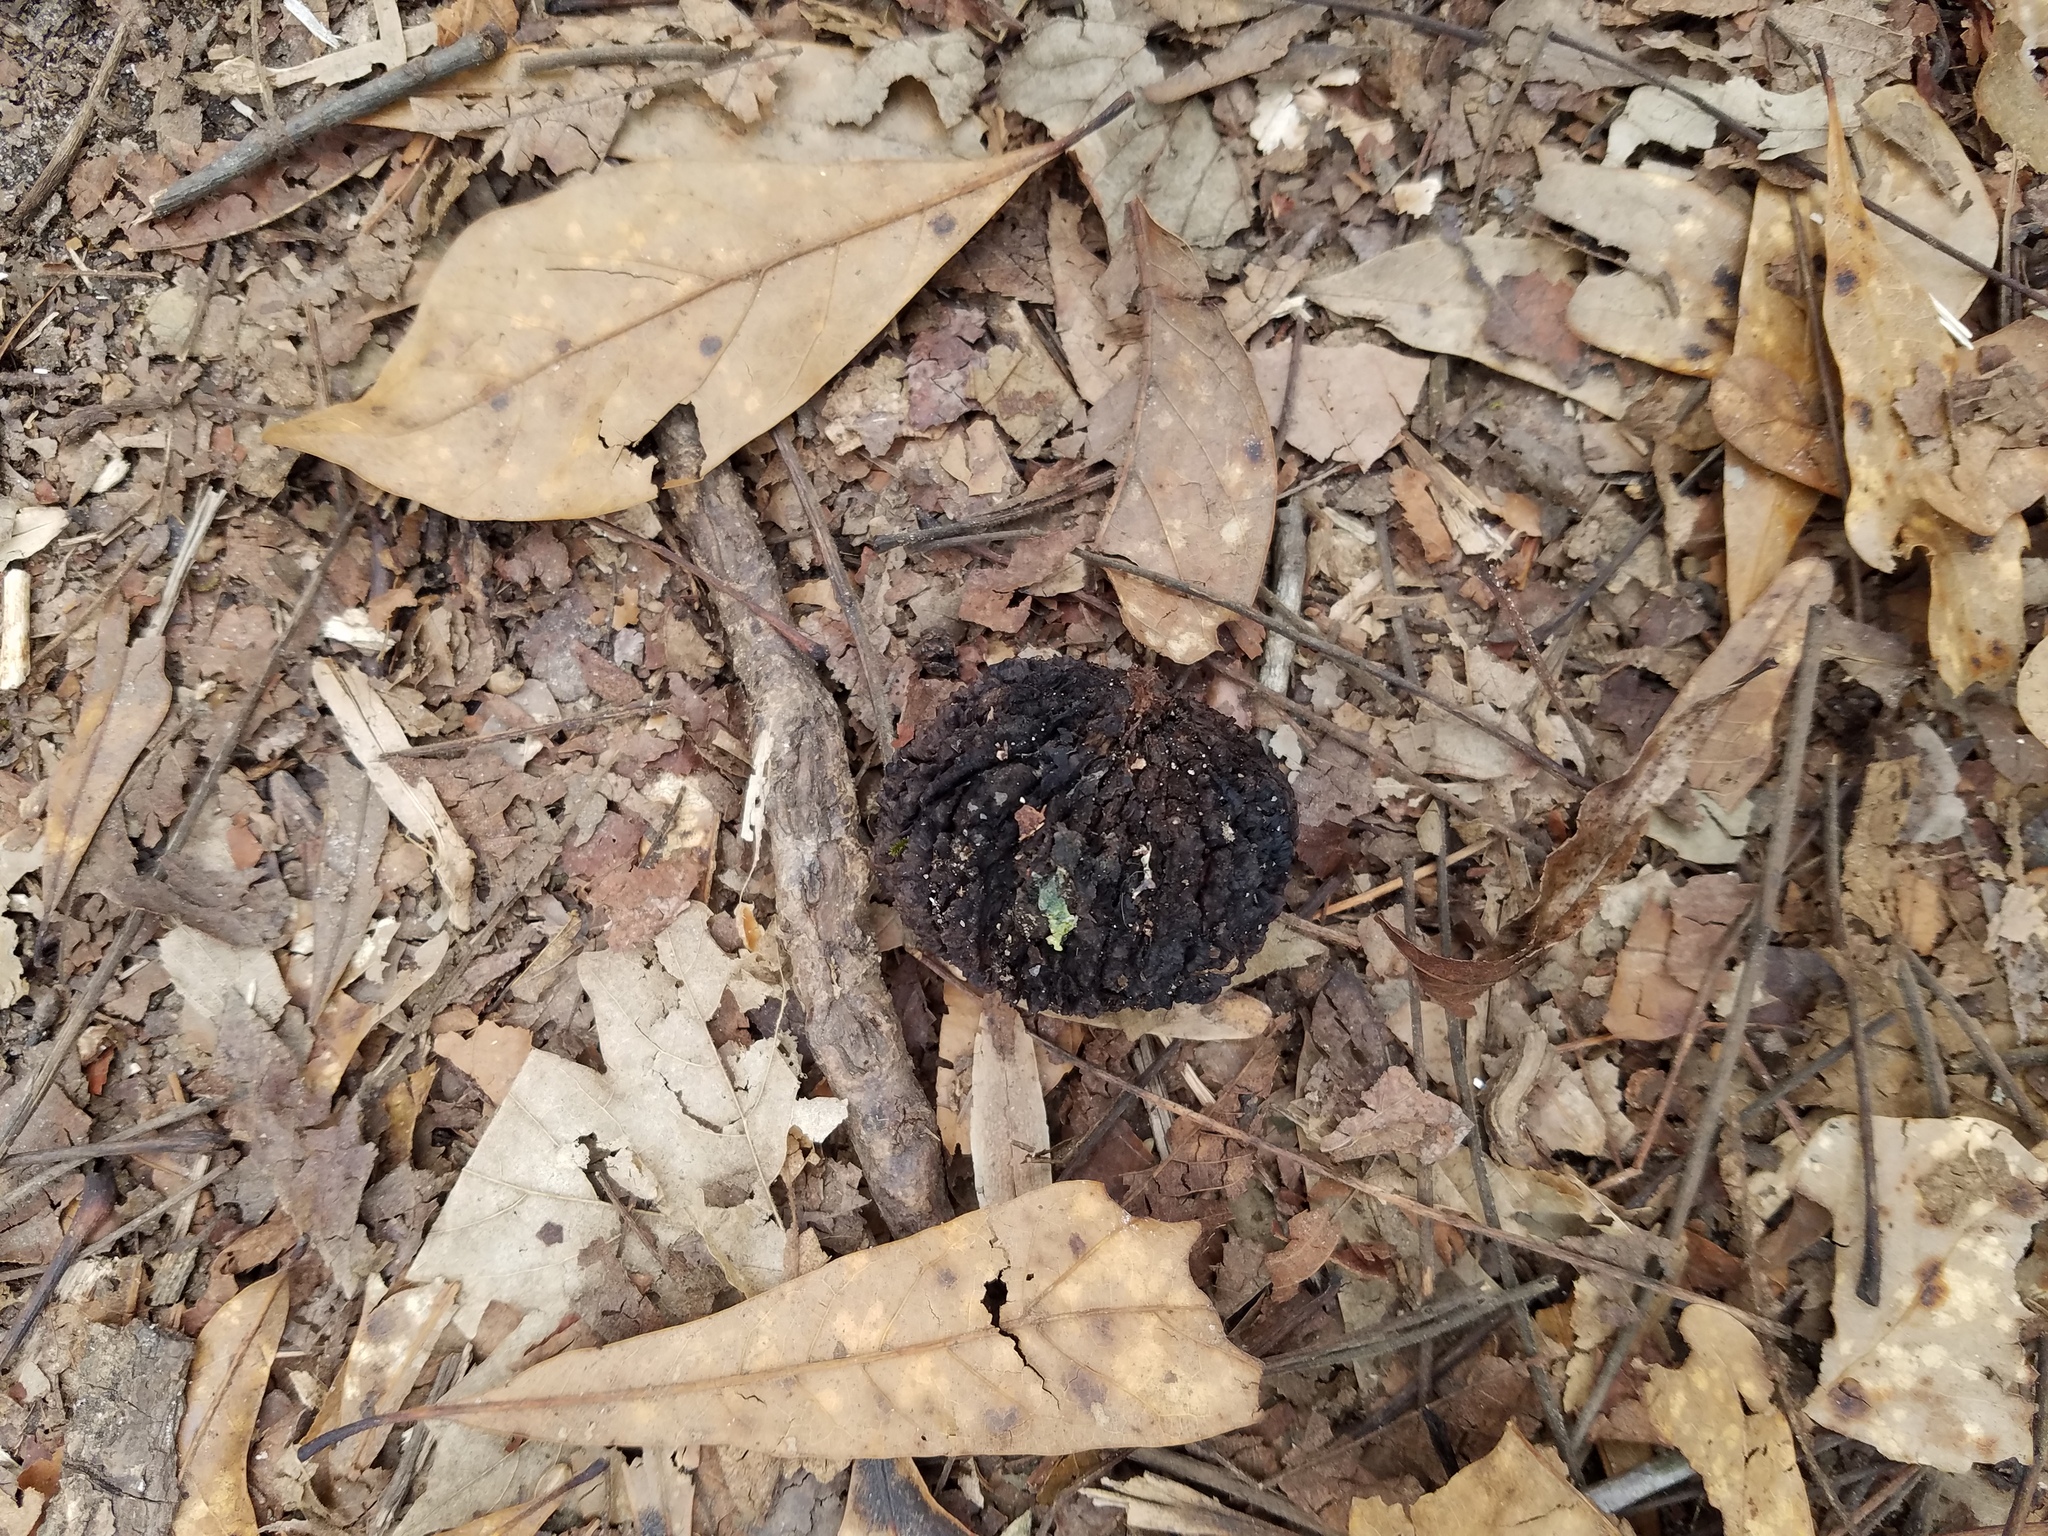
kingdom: Plantae
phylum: Tracheophyta
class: Magnoliopsida
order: Fagales
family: Juglandaceae
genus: Juglans
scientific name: Juglans nigra
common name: Black walnut
